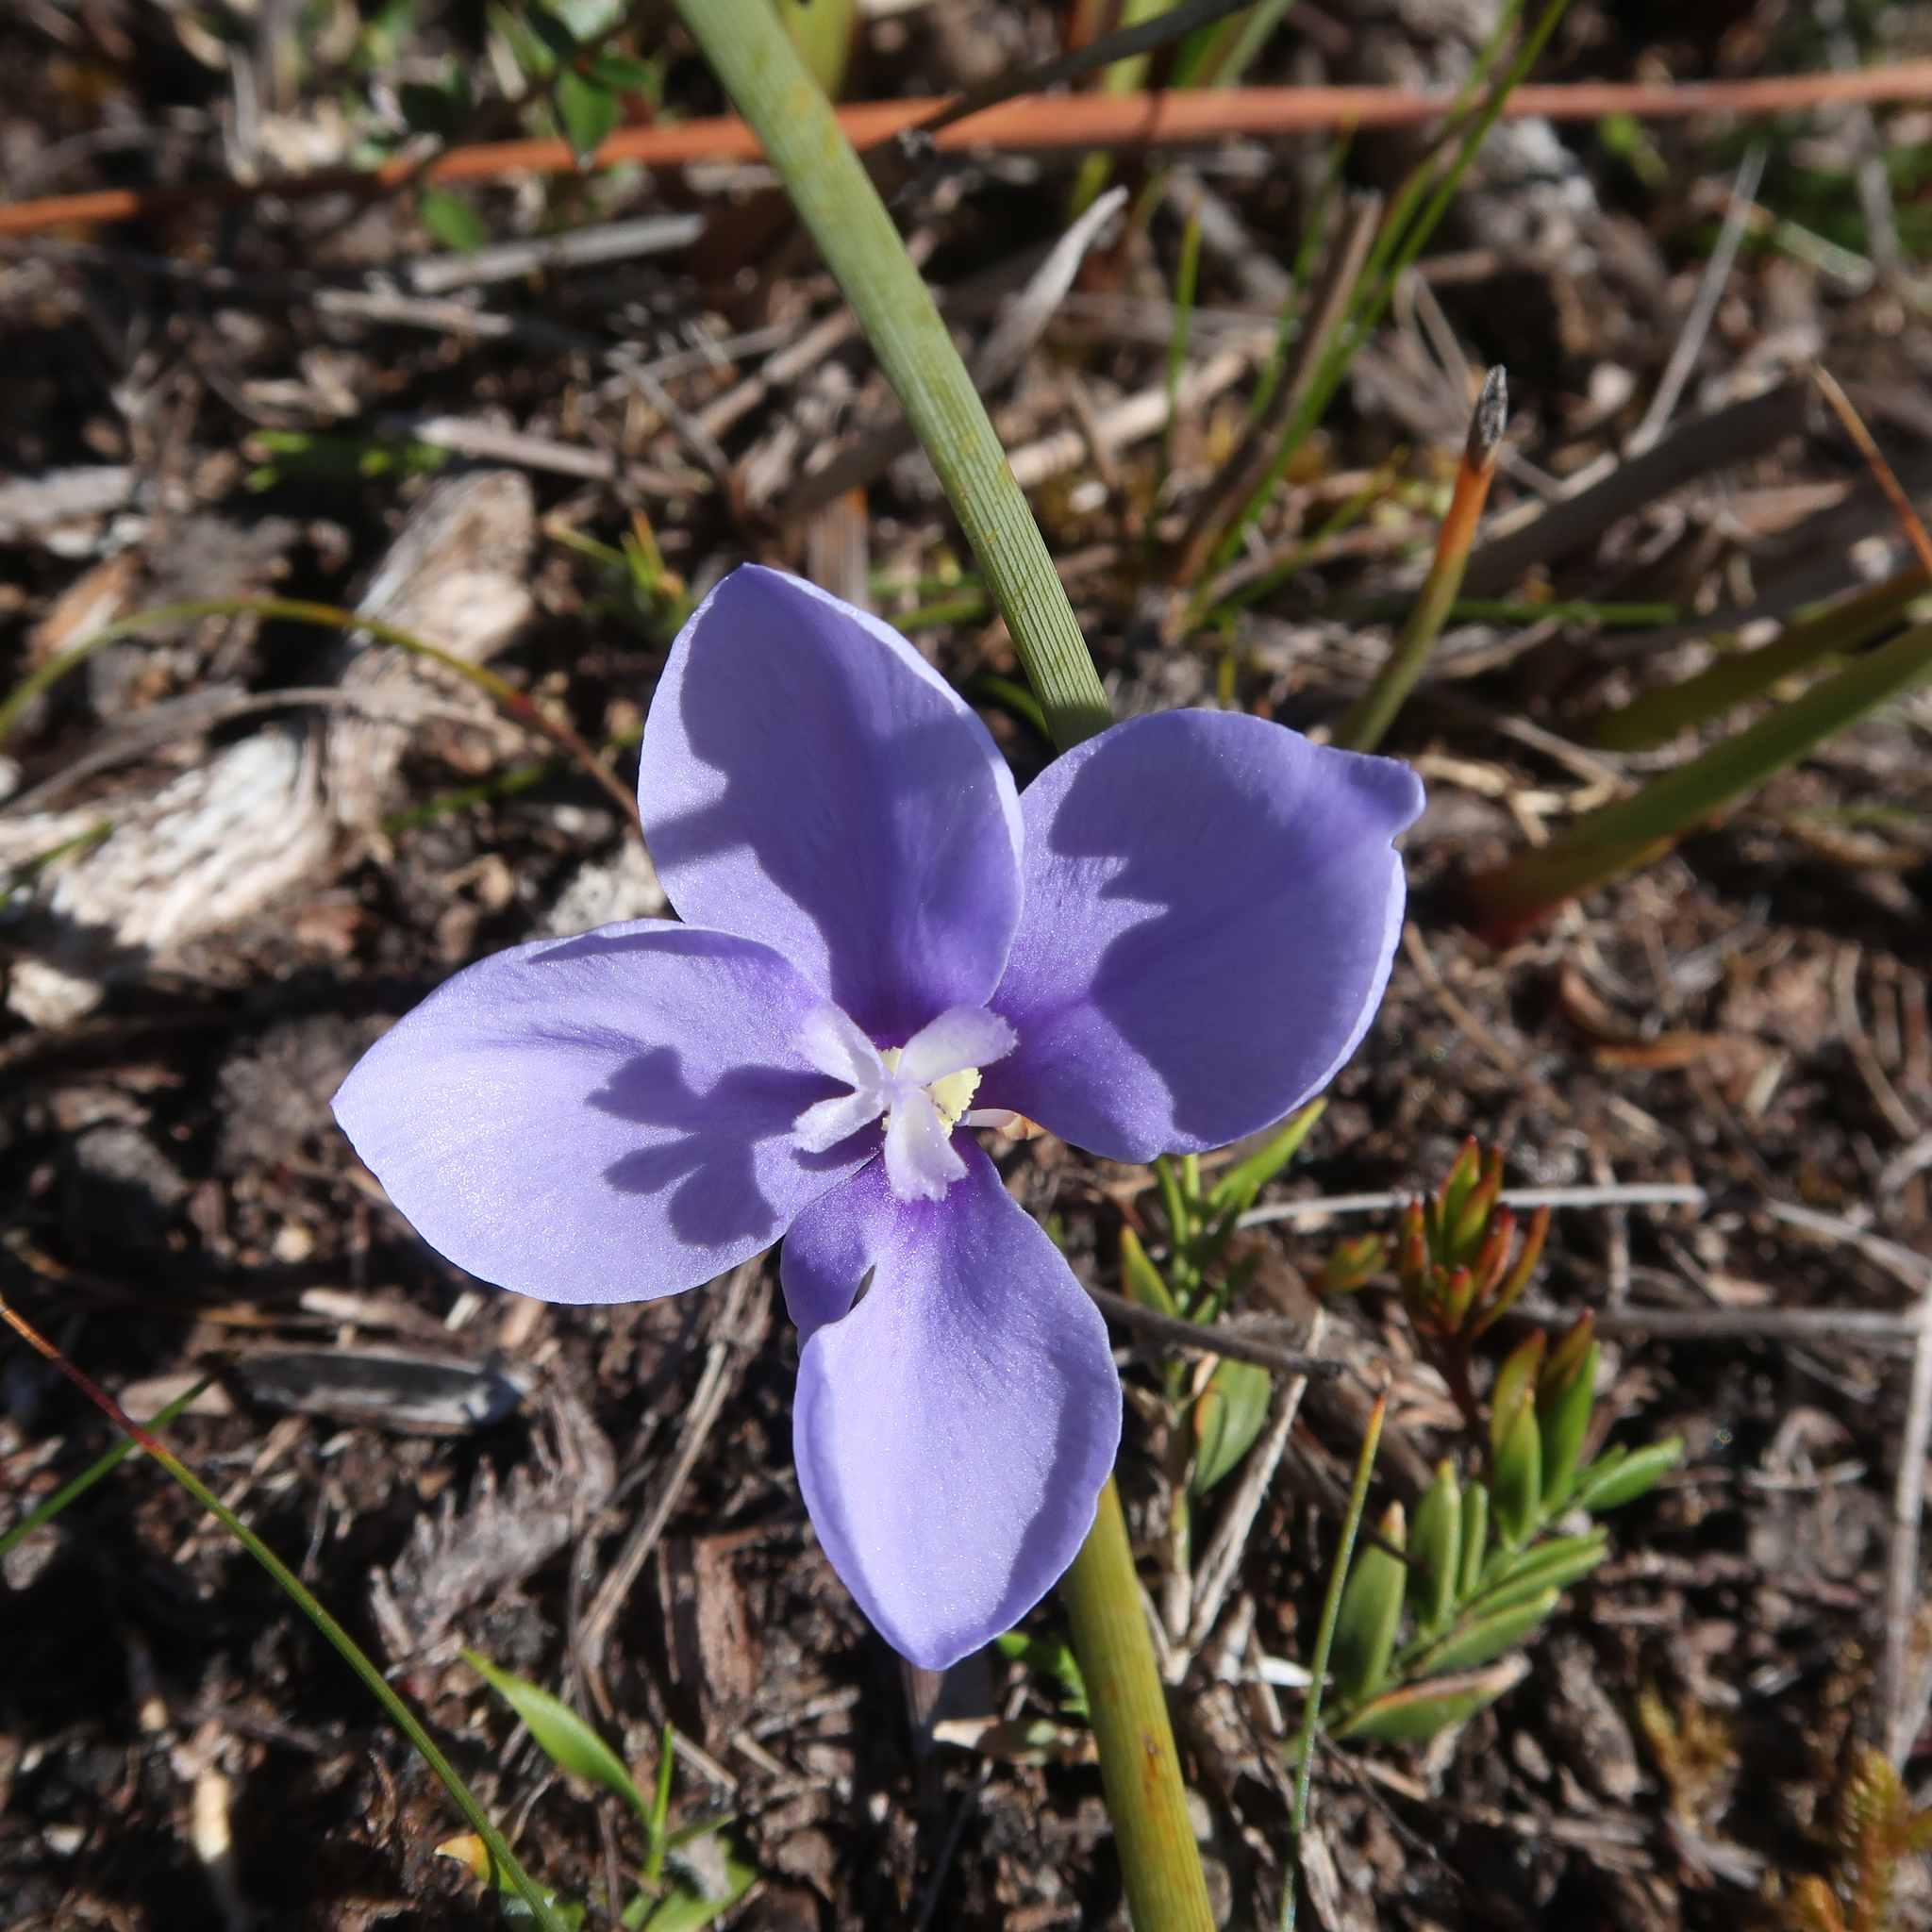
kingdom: Plantae
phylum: Tracheophyta
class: Liliopsida
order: Asparagales
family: Iridaceae
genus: Patersonia
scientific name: Patersonia fragilis
